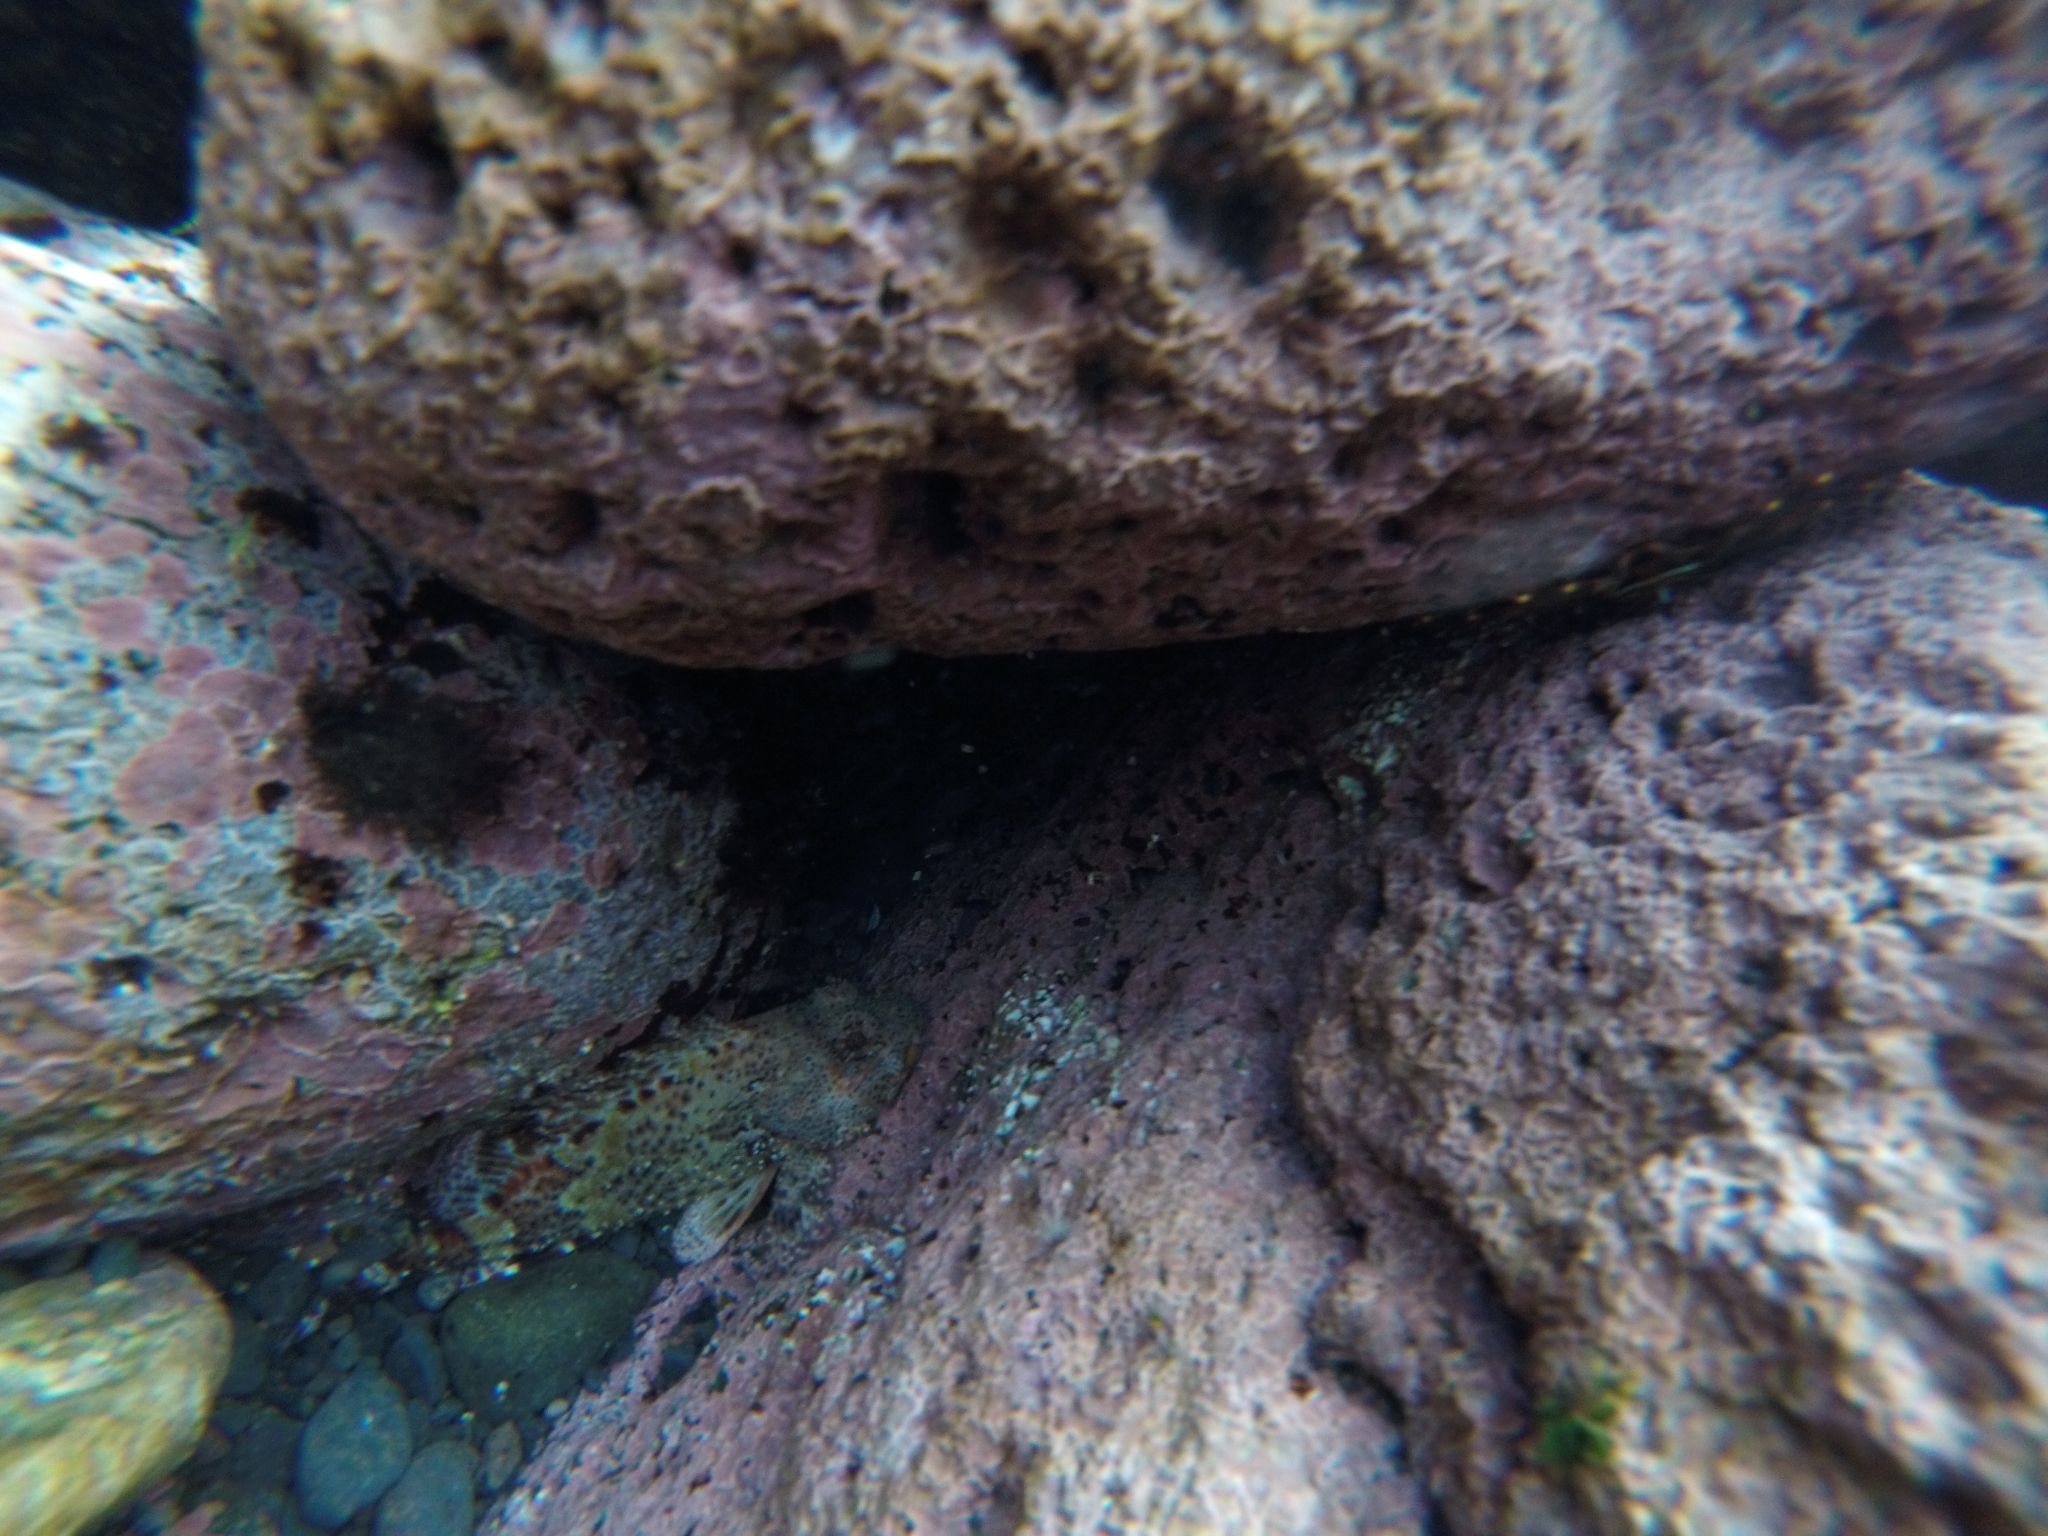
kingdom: Animalia
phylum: Chordata
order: Scorpaeniformes
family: Scorpaenidae
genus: Scorpaena
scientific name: Scorpaena maderensis
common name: Madeira rockfish
